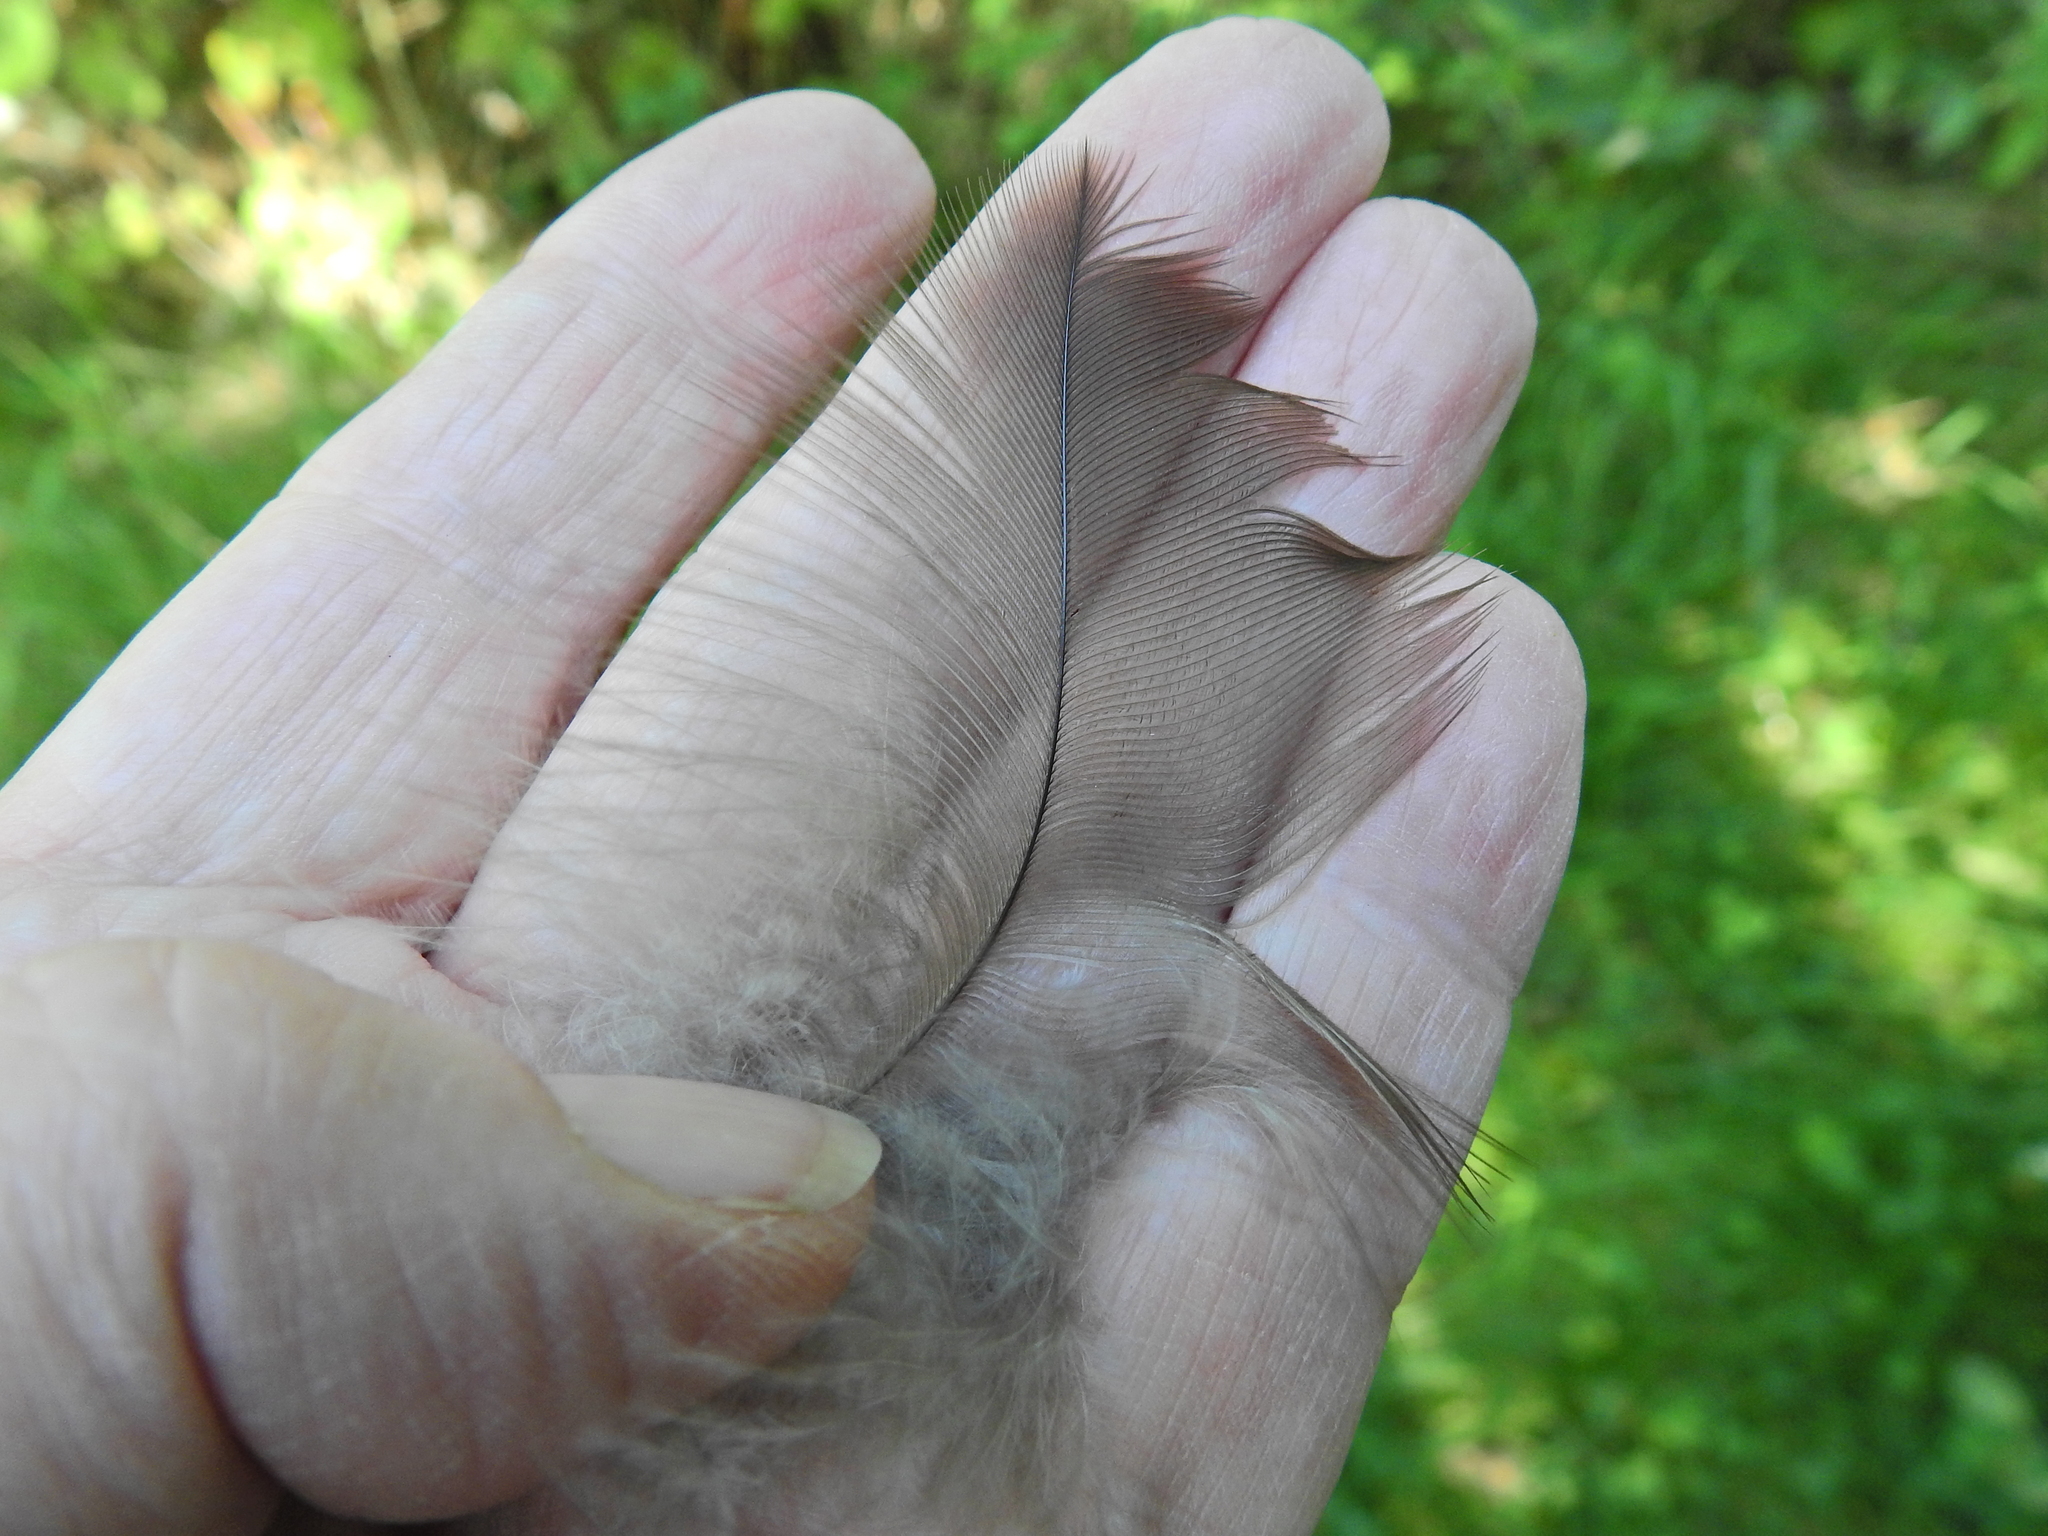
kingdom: Animalia
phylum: Chordata
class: Aves
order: Accipitriformes
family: Accipitridae
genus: Buteo
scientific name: Buteo buteo
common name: Common buzzard
